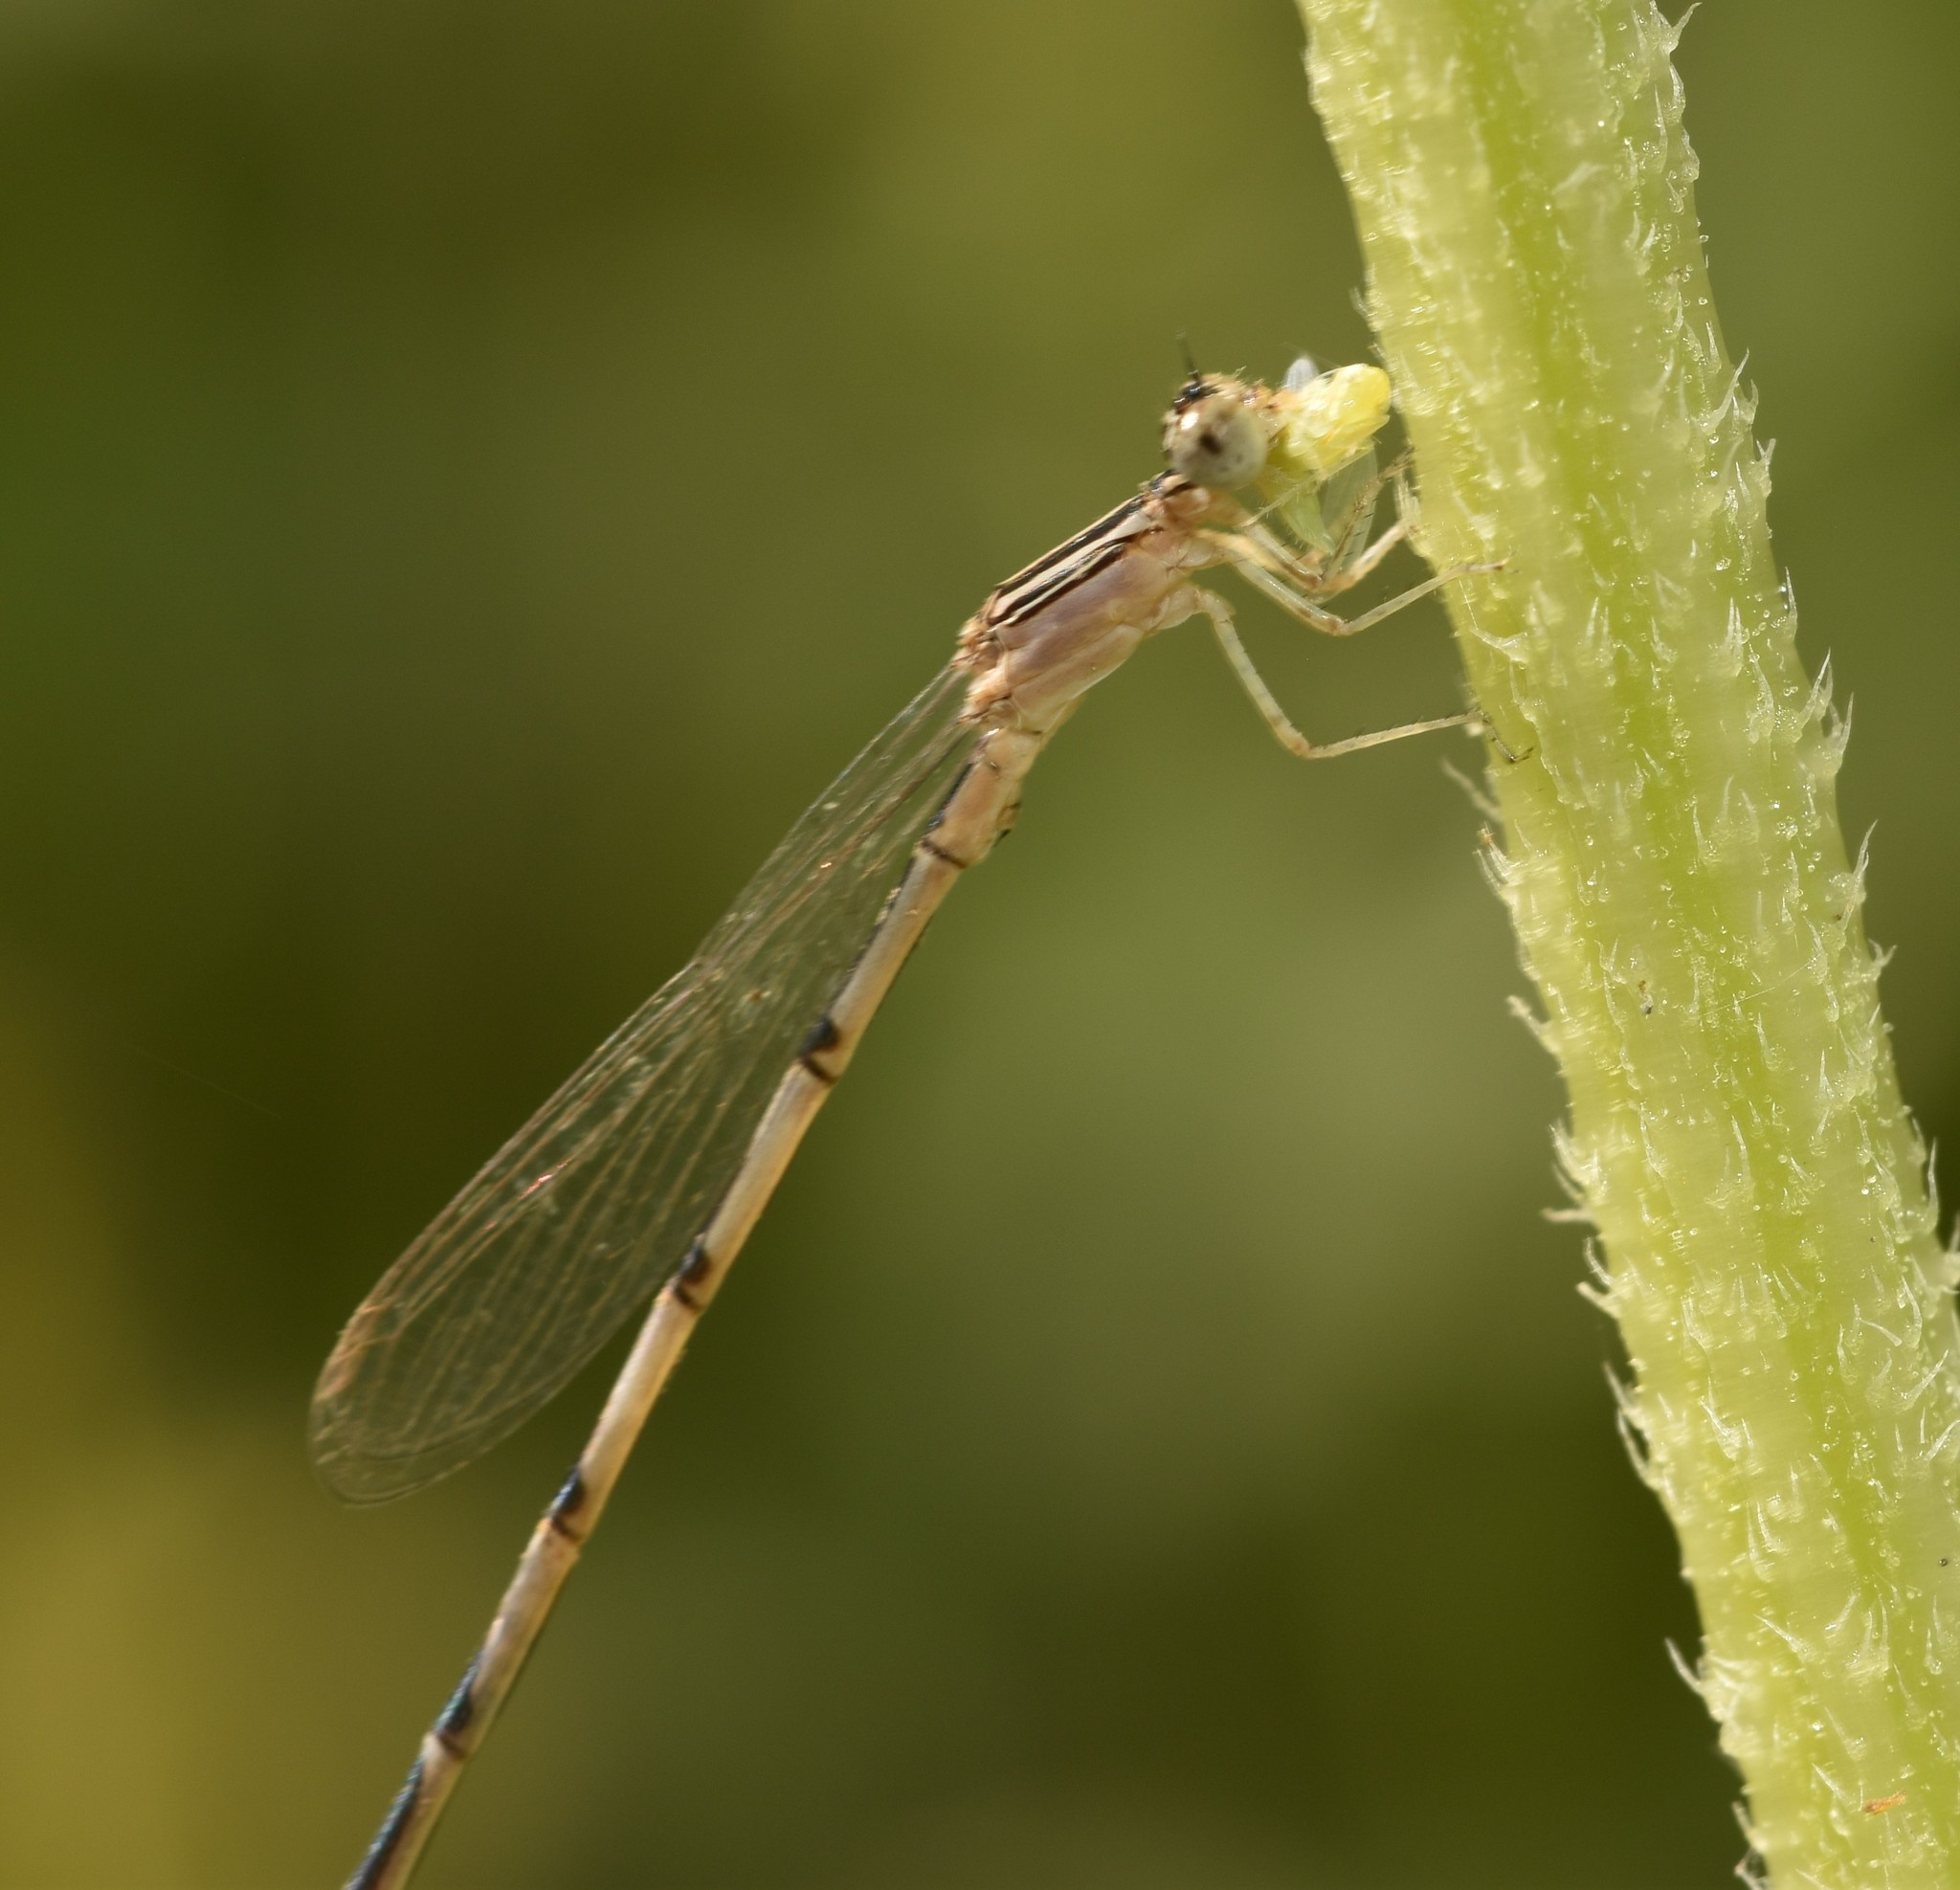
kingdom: Animalia
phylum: Arthropoda
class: Insecta
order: Odonata
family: Coenagrionidae
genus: Enallagma
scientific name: Enallagma basidens
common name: Double-striped bluet
